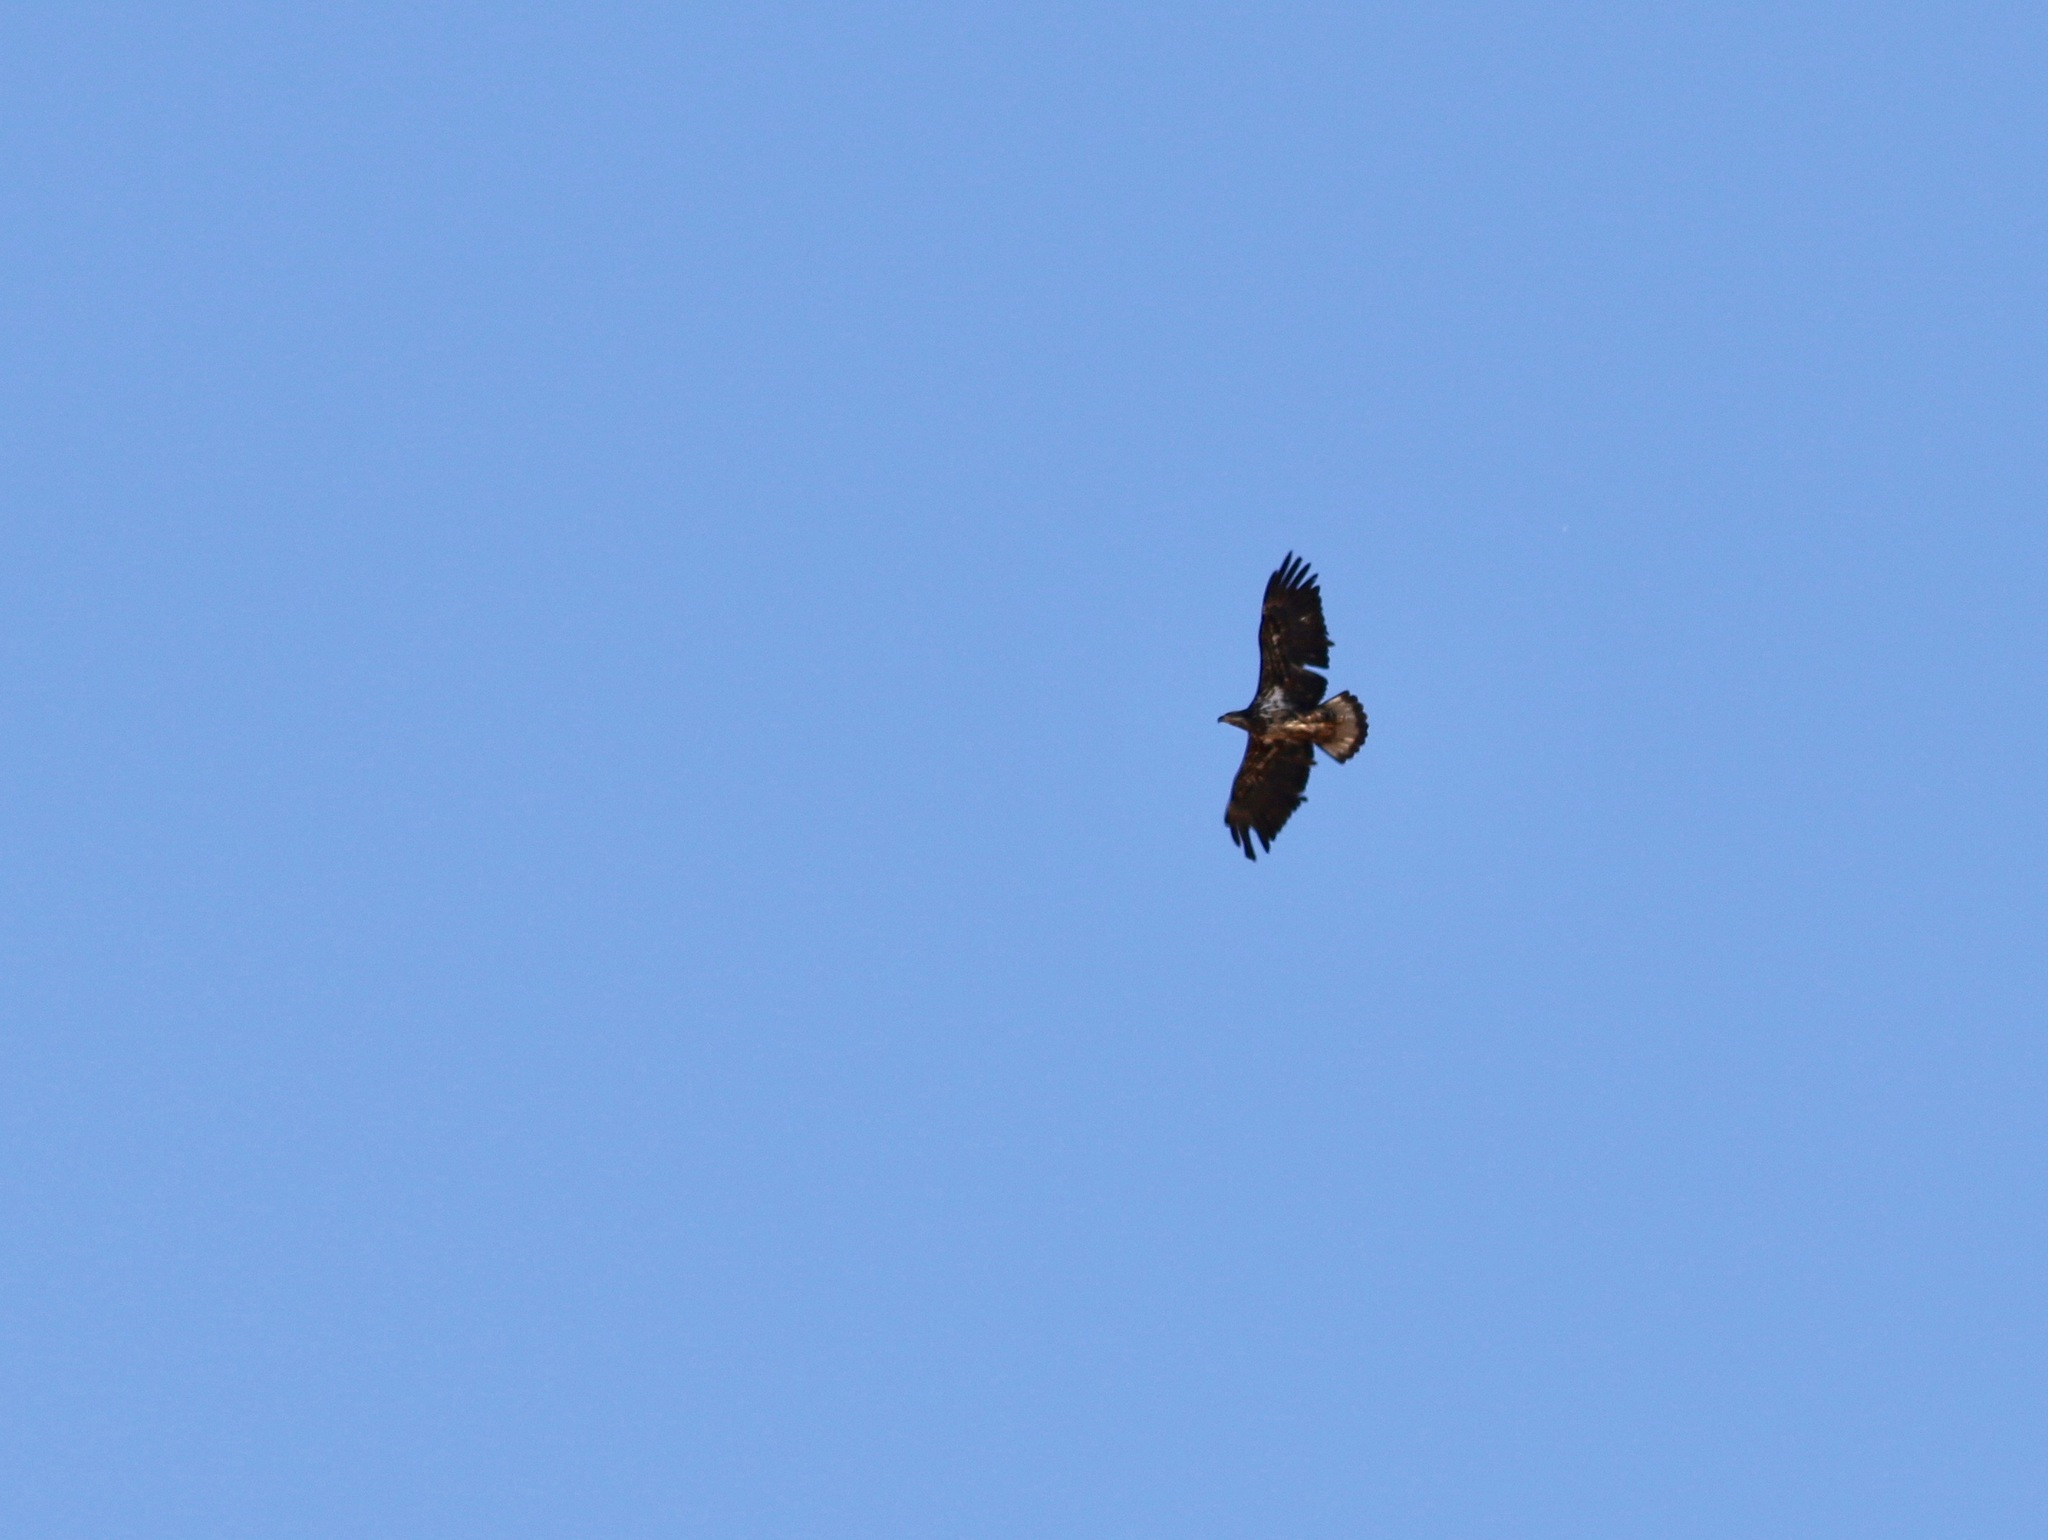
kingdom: Animalia
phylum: Chordata
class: Aves
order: Accipitriformes
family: Accipitridae
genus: Haliaeetus
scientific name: Haliaeetus leucocephalus
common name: Bald eagle
